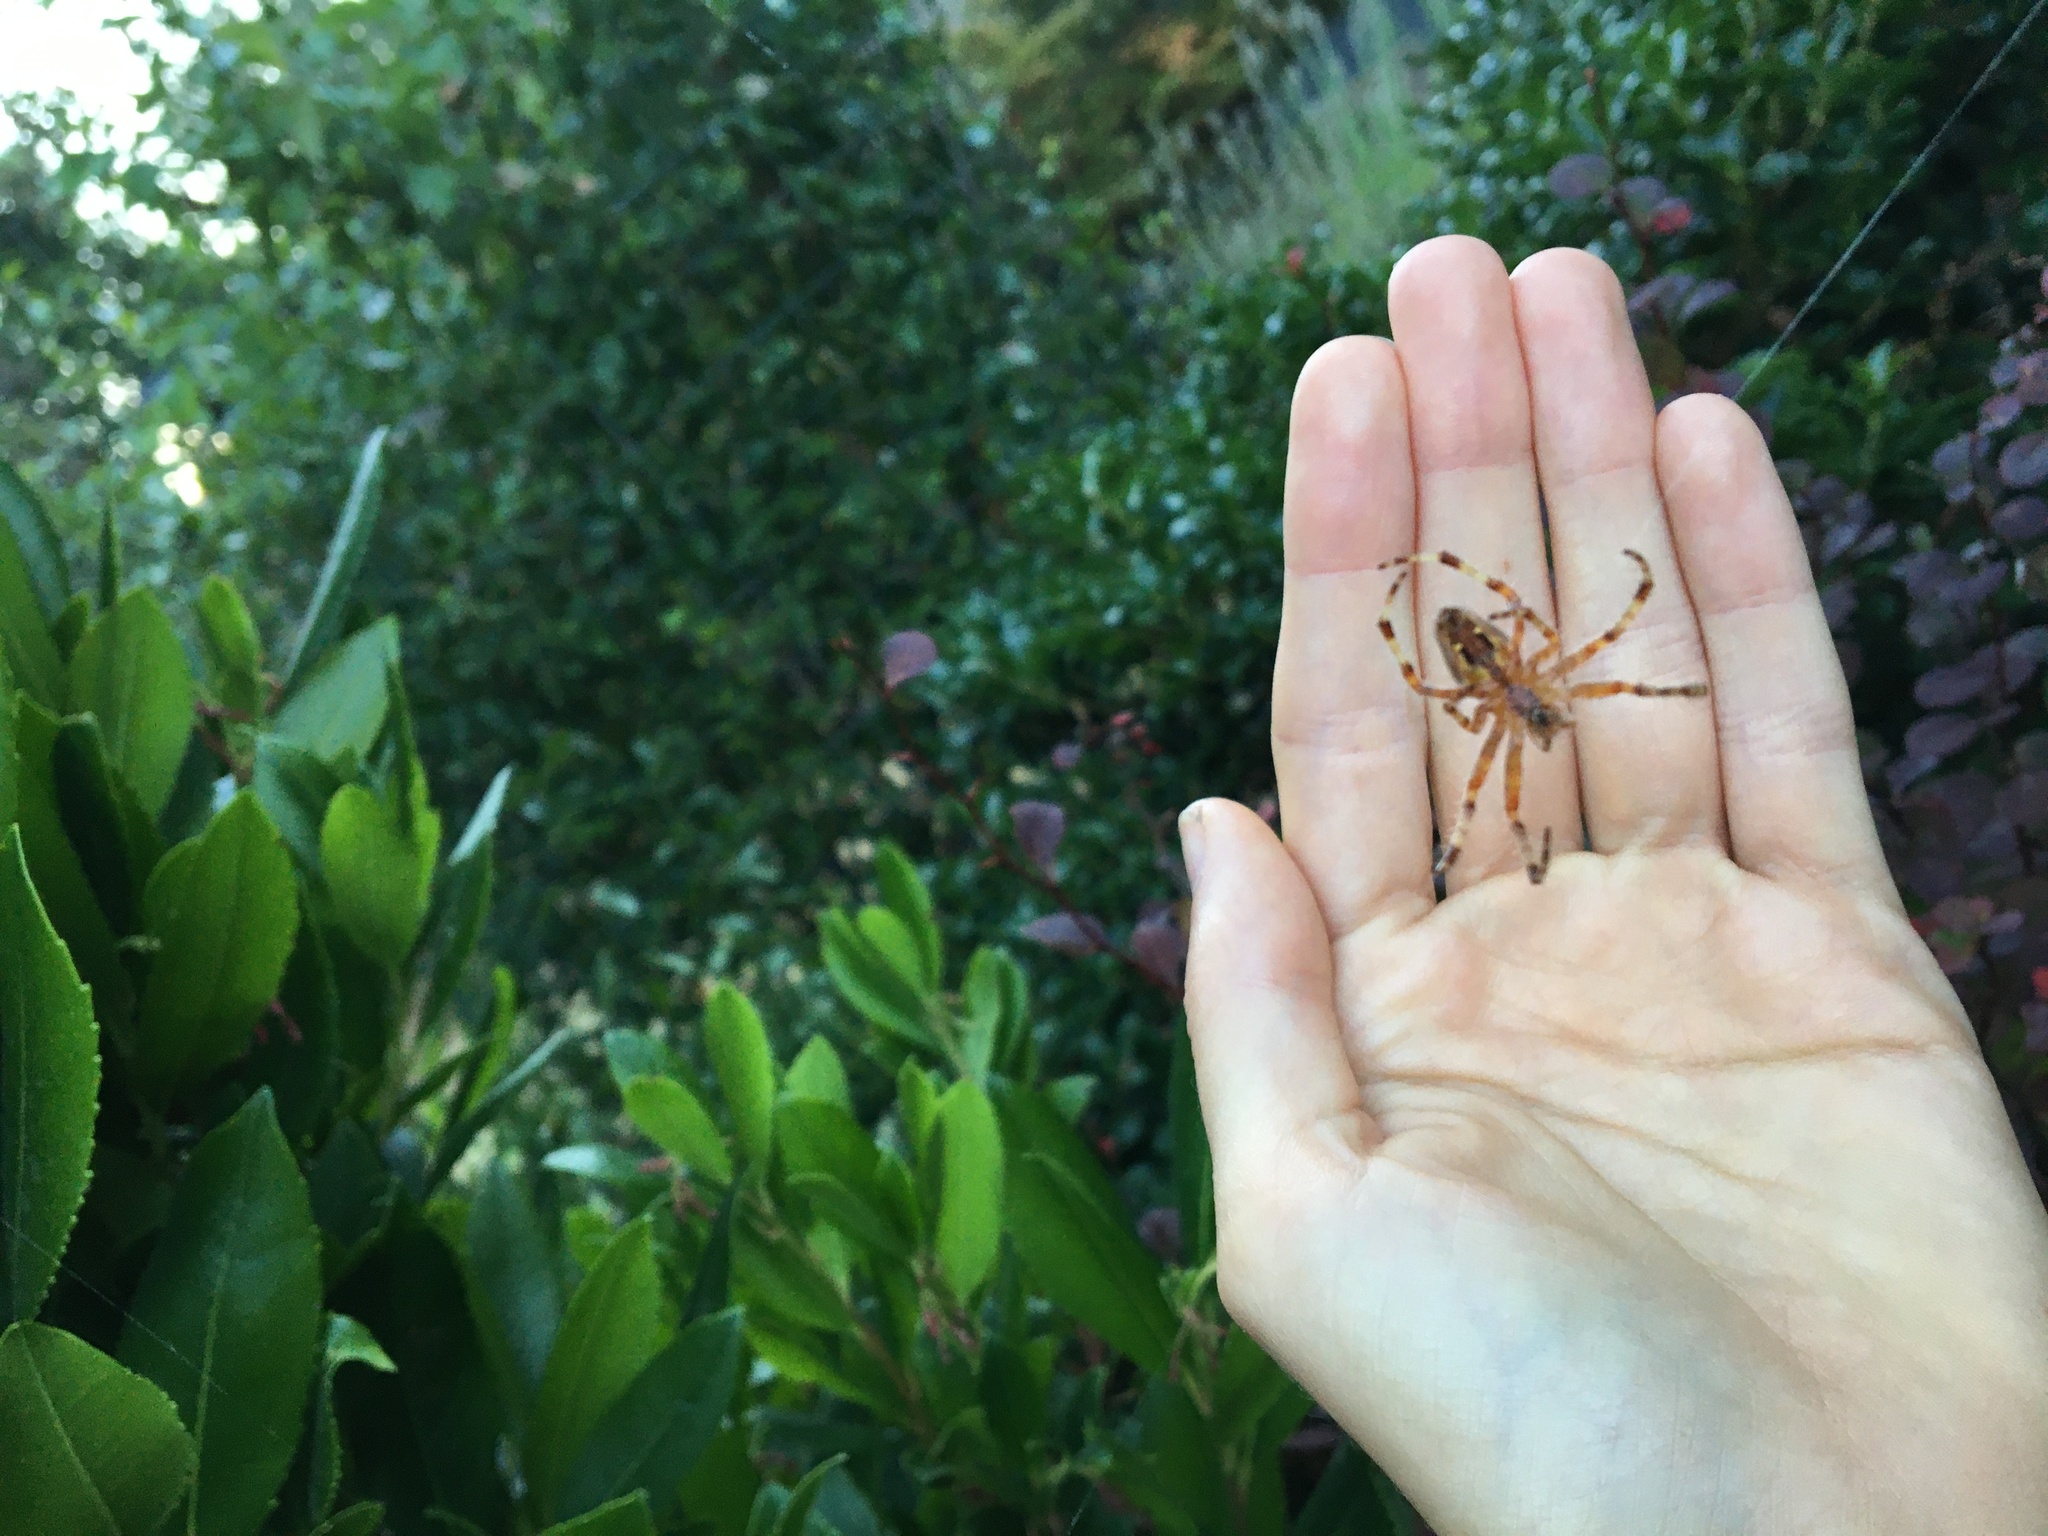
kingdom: Animalia
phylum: Arthropoda
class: Arachnida
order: Araneae
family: Araneidae
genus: Araneus
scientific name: Araneus diadematus
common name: Cross orbweaver
